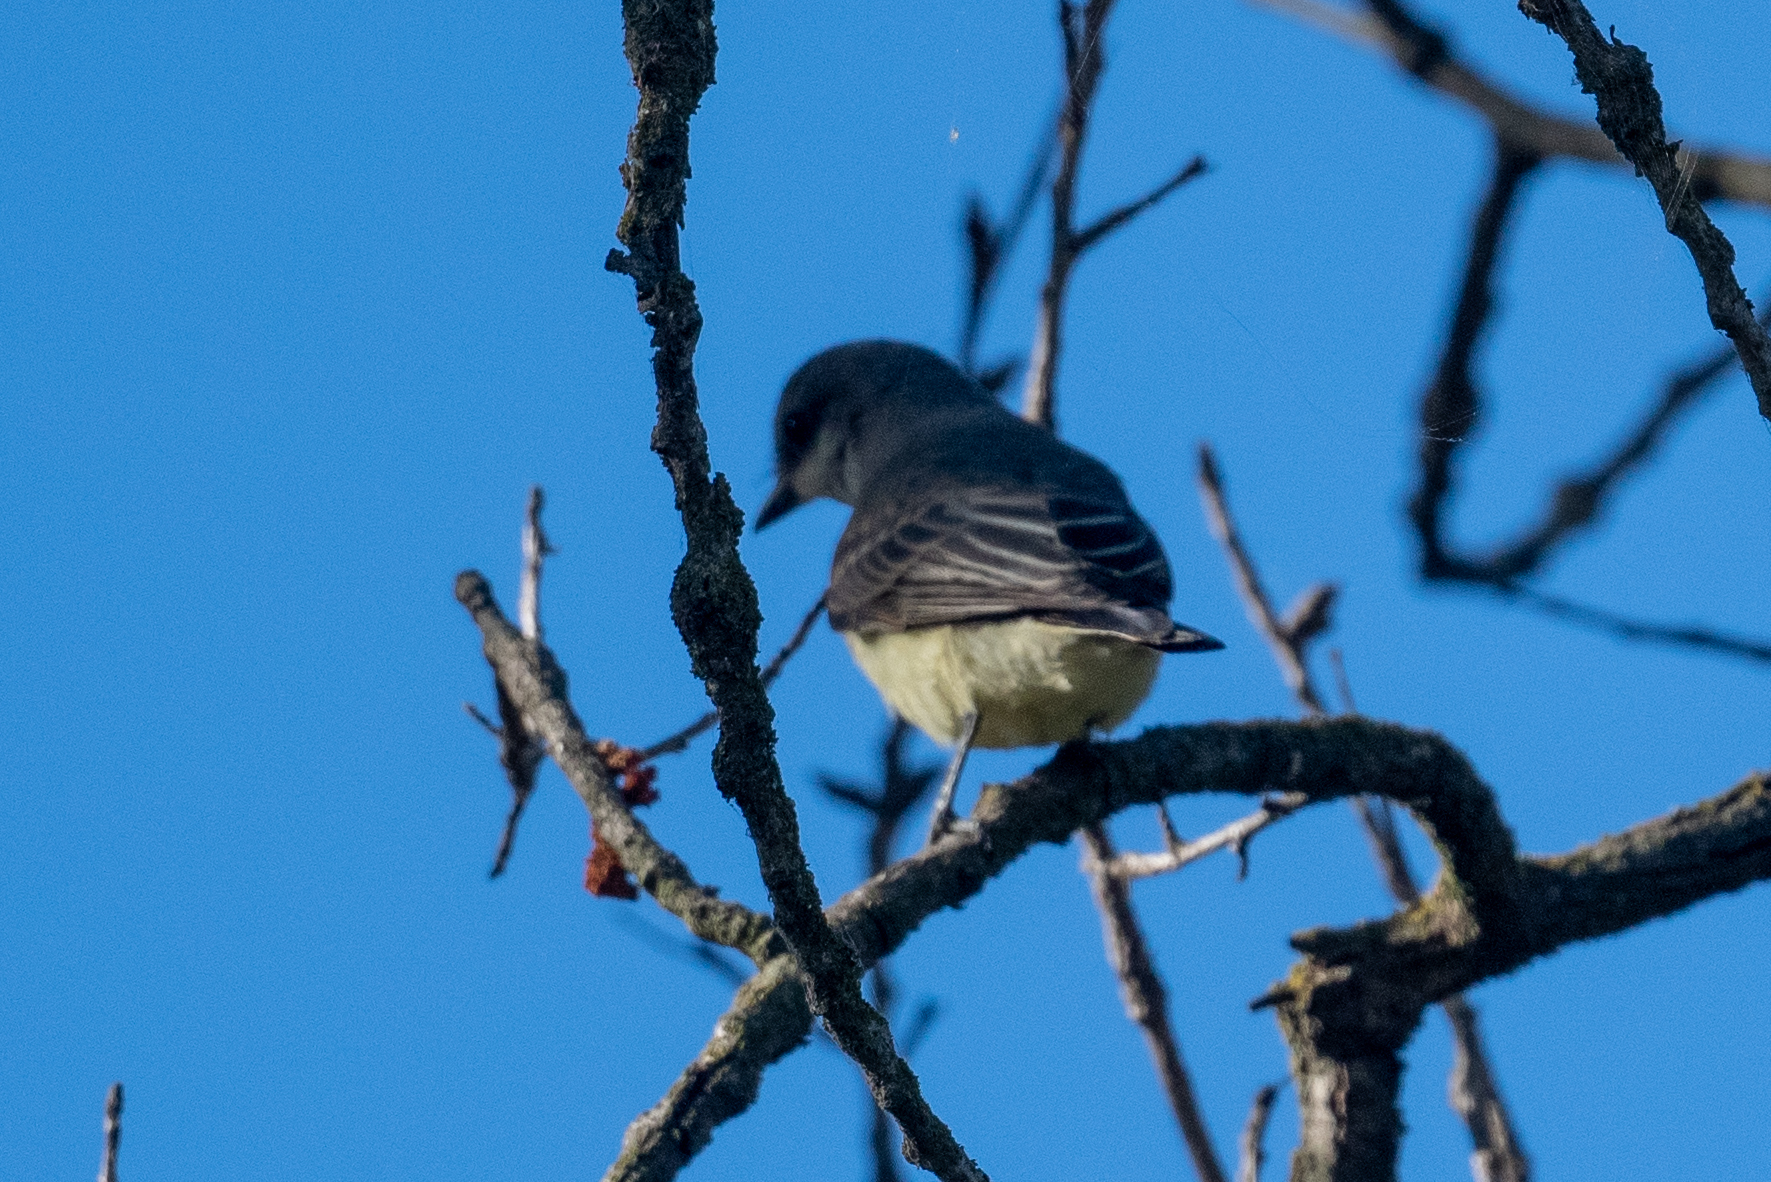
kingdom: Animalia
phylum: Chordata
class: Aves
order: Passeriformes
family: Tyrannidae
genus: Tyrannus
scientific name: Tyrannus verticalis
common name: Western kingbird
